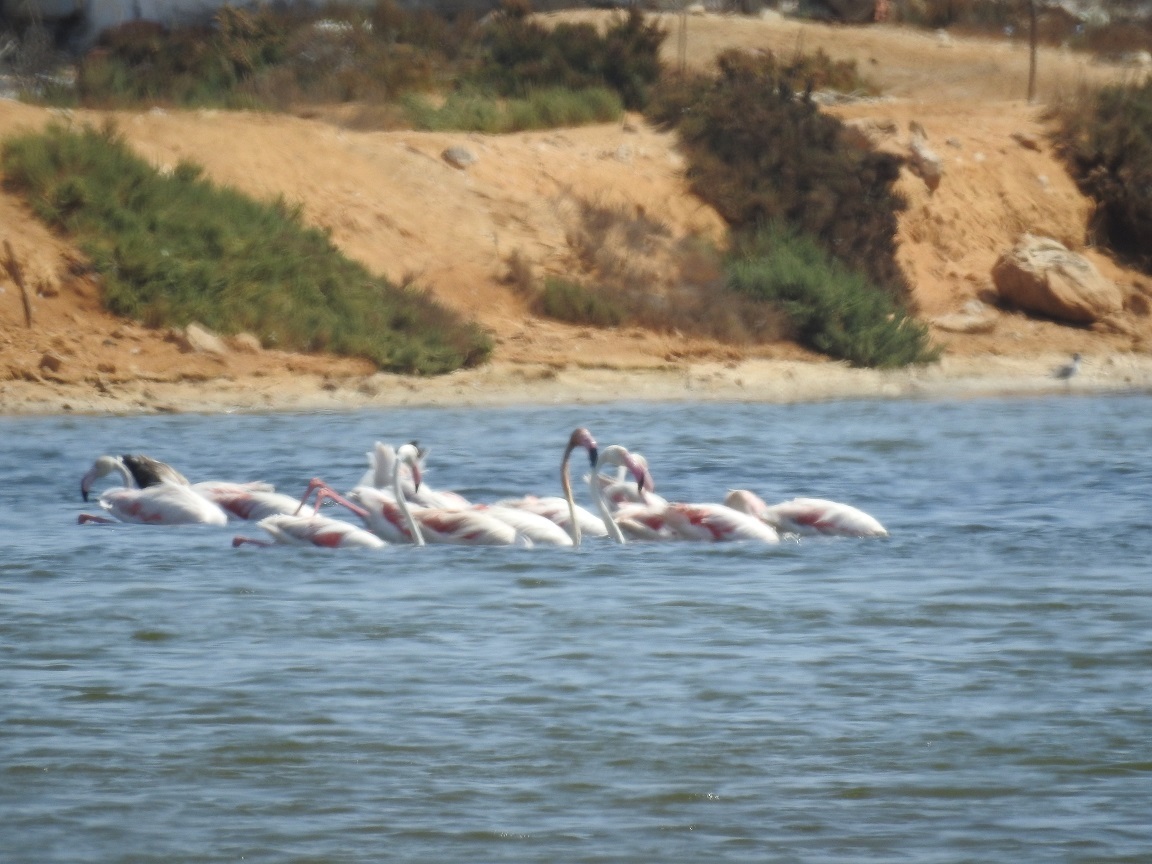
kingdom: Animalia
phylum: Chordata
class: Aves
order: Phoenicopteriformes
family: Phoenicopteridae
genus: Phoenicopterus
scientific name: Phoenicopterus roseus
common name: Greater flamingo
